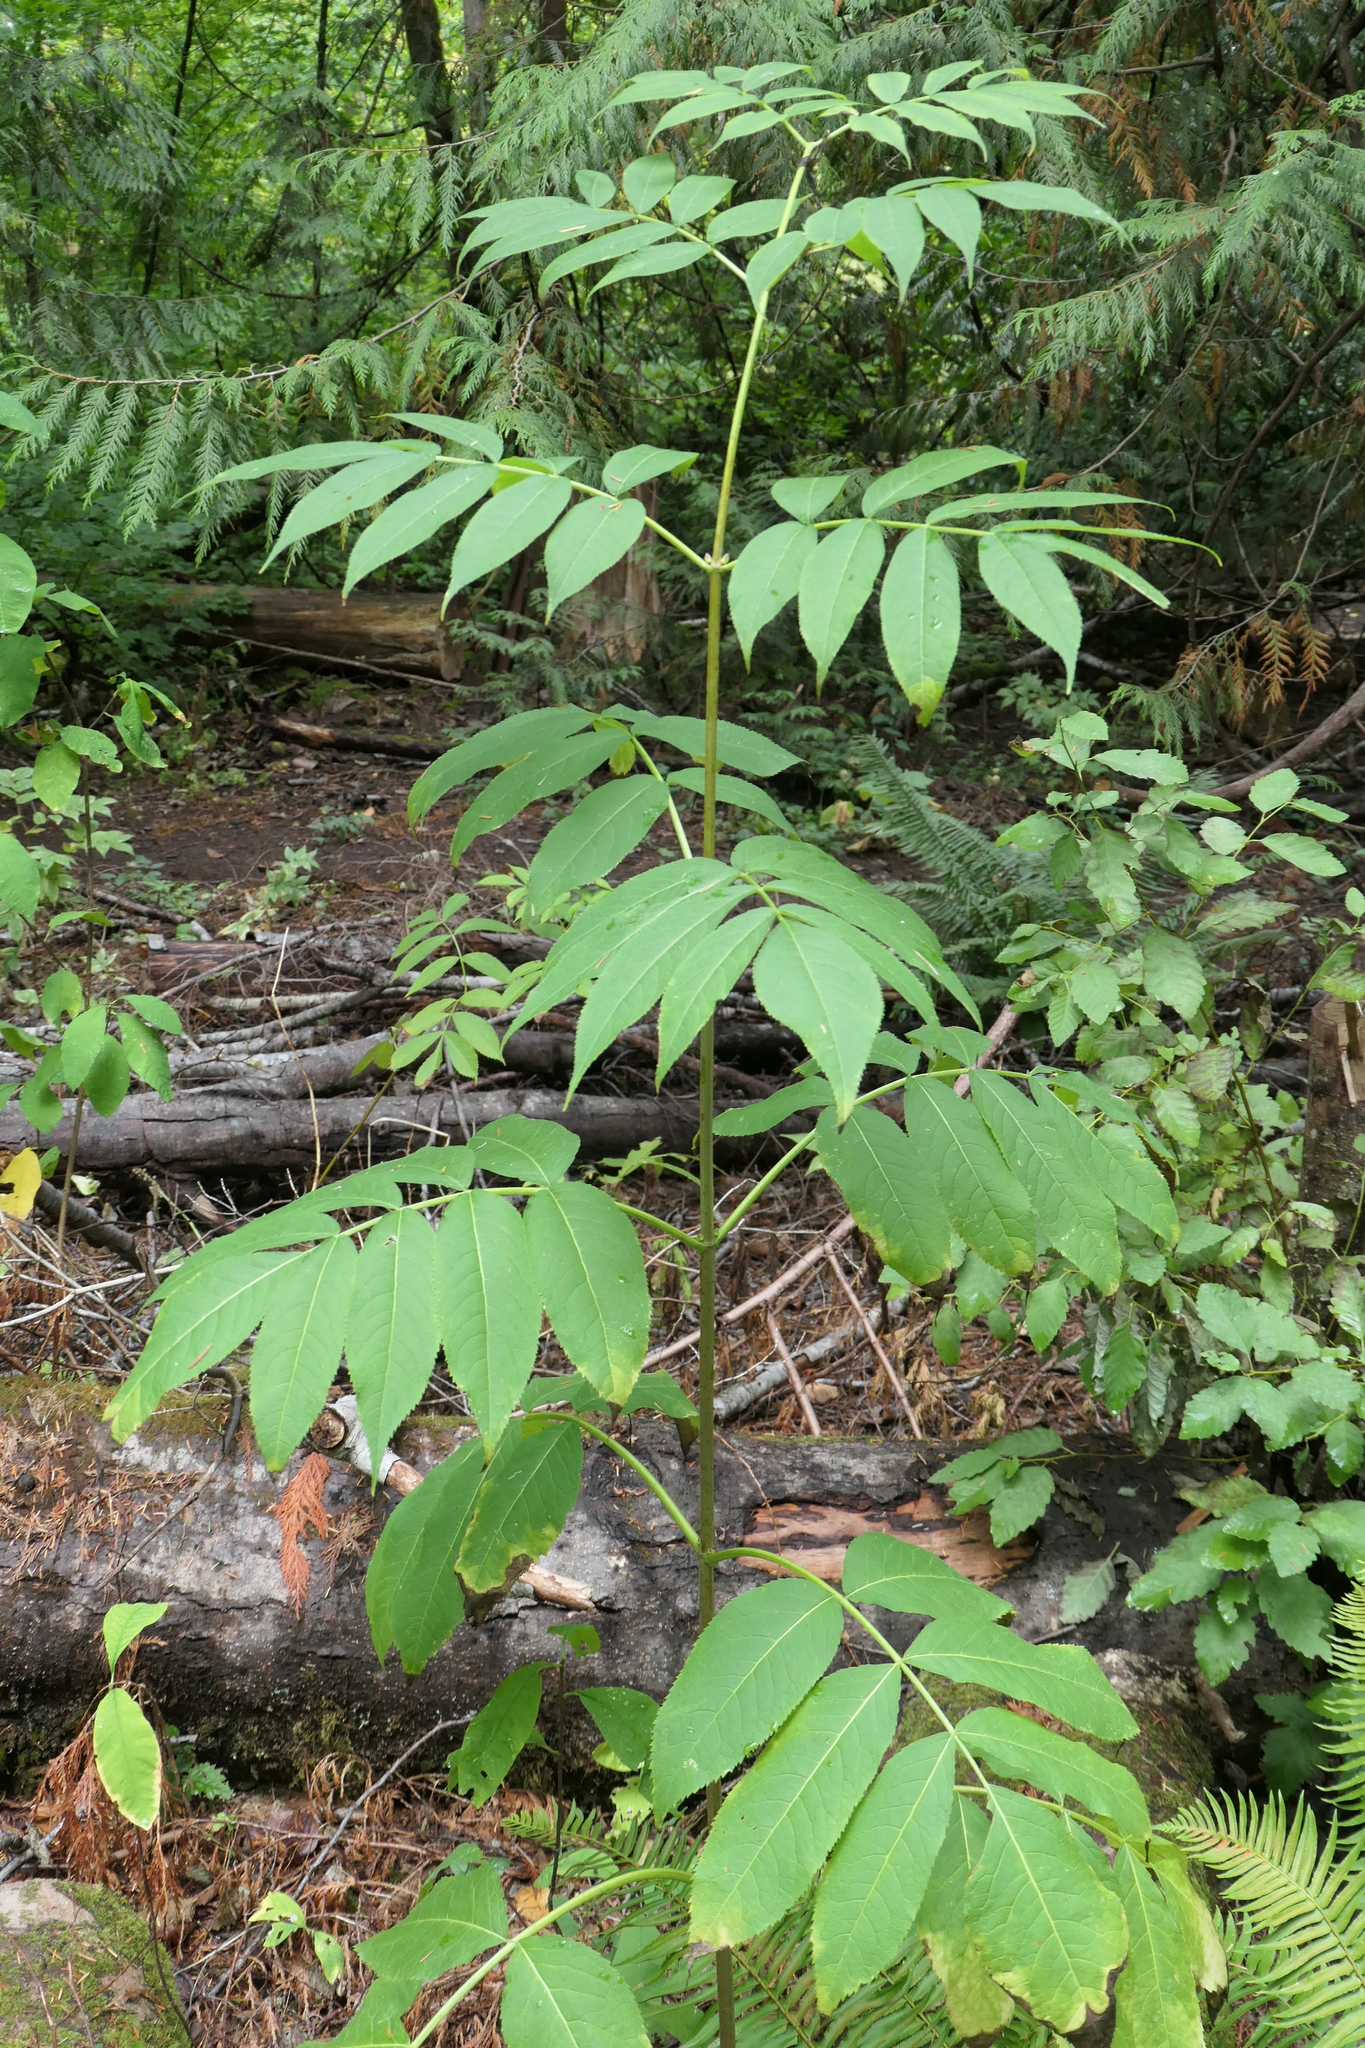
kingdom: Plantae
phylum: Tracheophyta
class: Magnoliopsida
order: Dipsacales
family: Viburnaceae
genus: Sambucus
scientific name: Sambucus racemosa
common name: Red-berried elder
